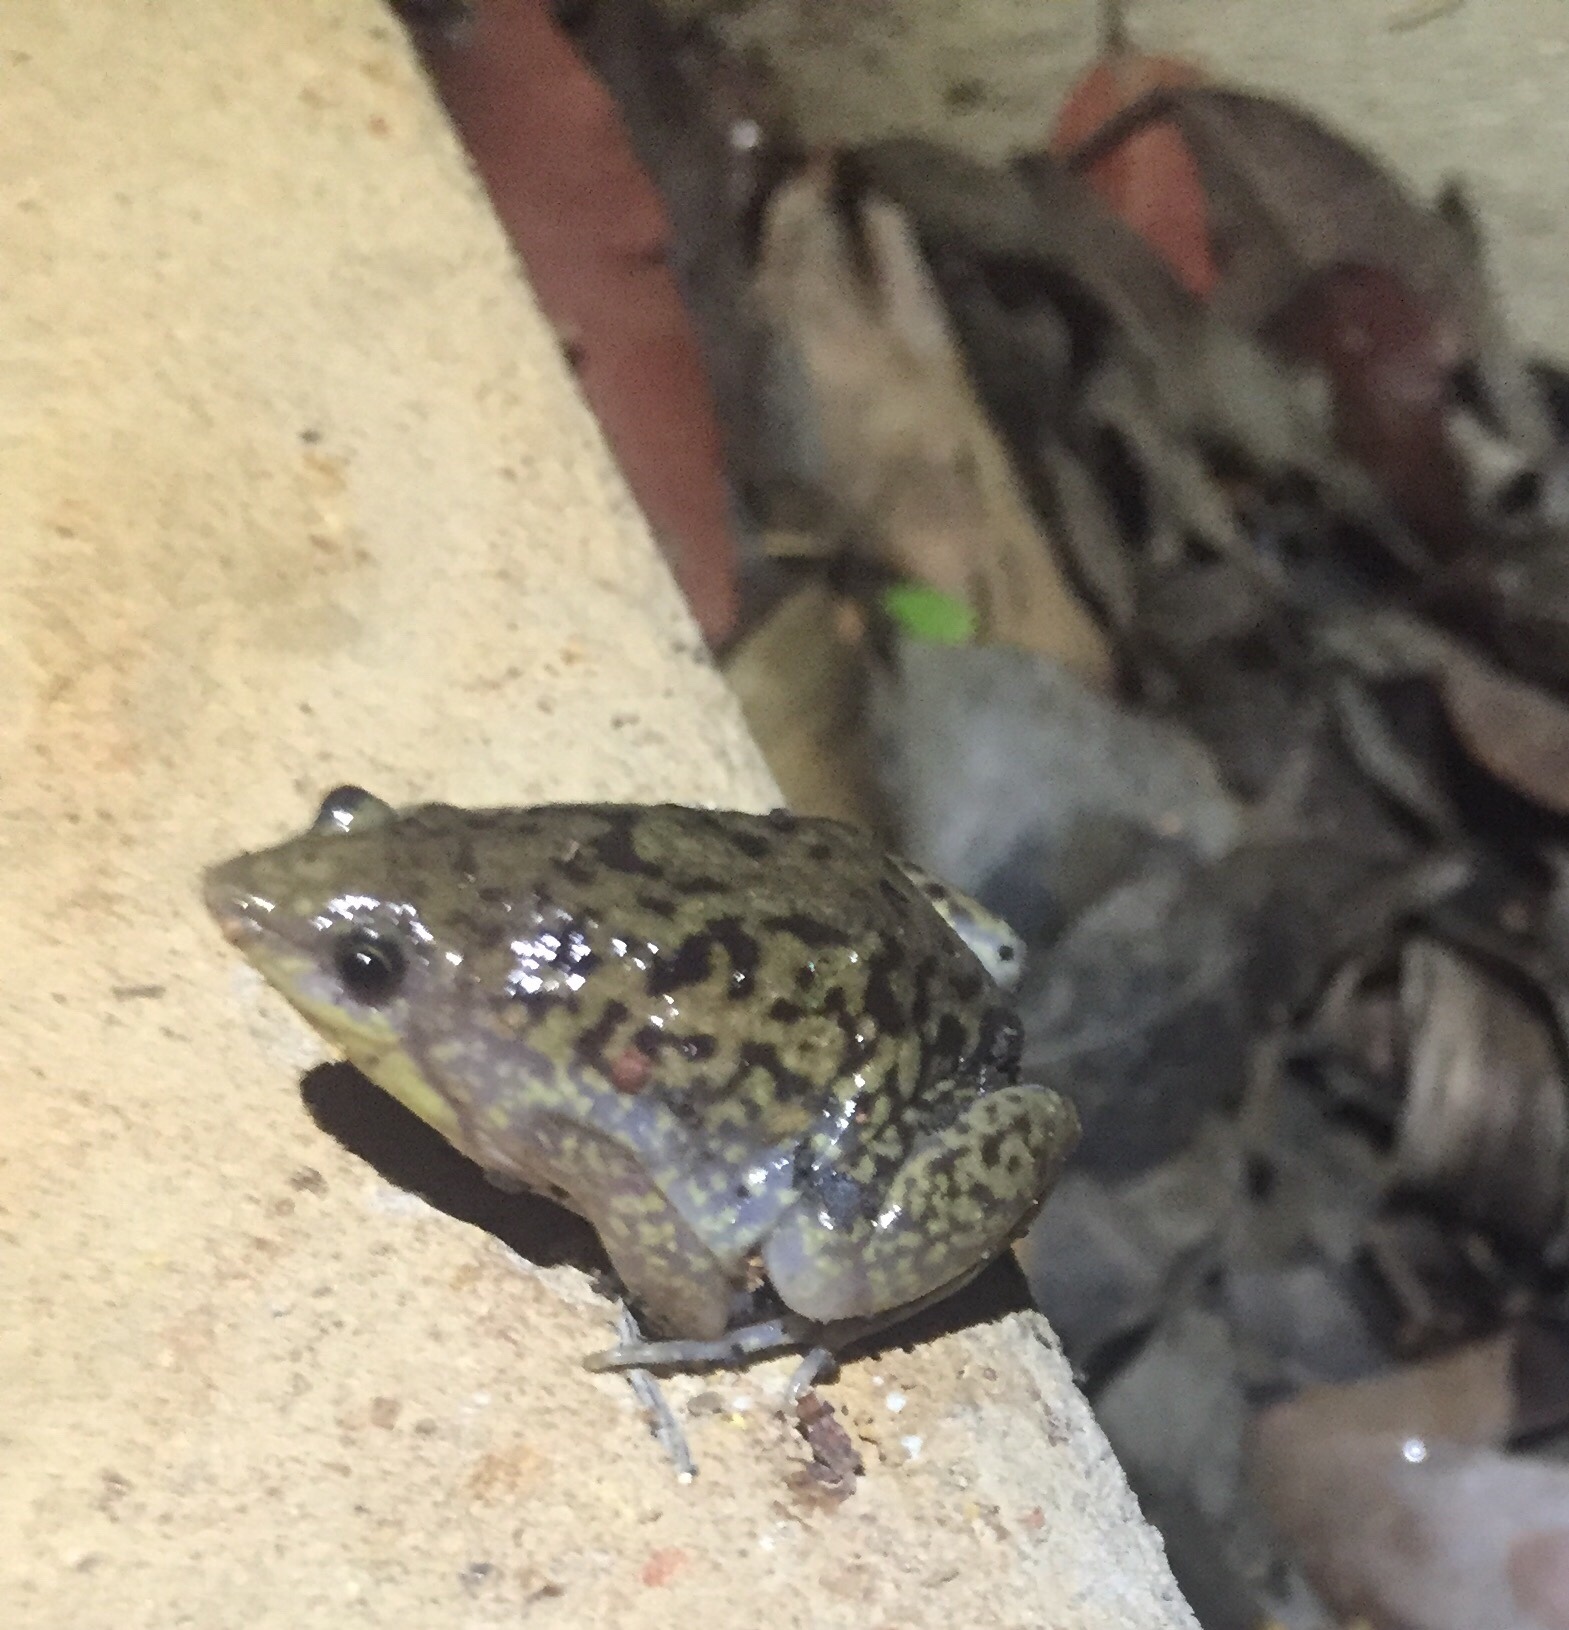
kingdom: Animalia
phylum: Chordata
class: Amphibia
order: Anura
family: Hemisotidae
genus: Hemisus
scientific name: Hemisus marmoratus
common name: Mottled shovel-nosed frog
